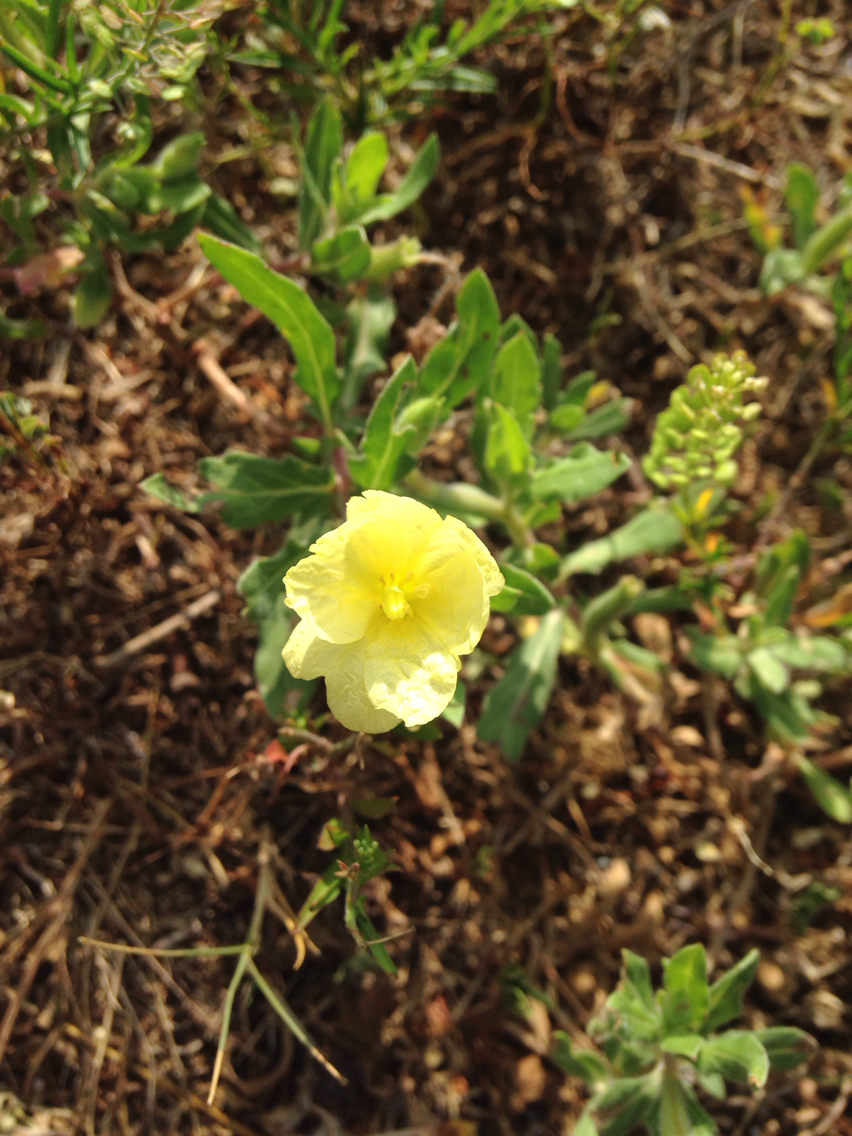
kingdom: Plantae
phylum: Tracheophyta
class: Magnoliopsida
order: Myrtales
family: Onagraceae
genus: Oenothera
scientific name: Oenothera laciniata
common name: Cut-leaved evening-primrose
